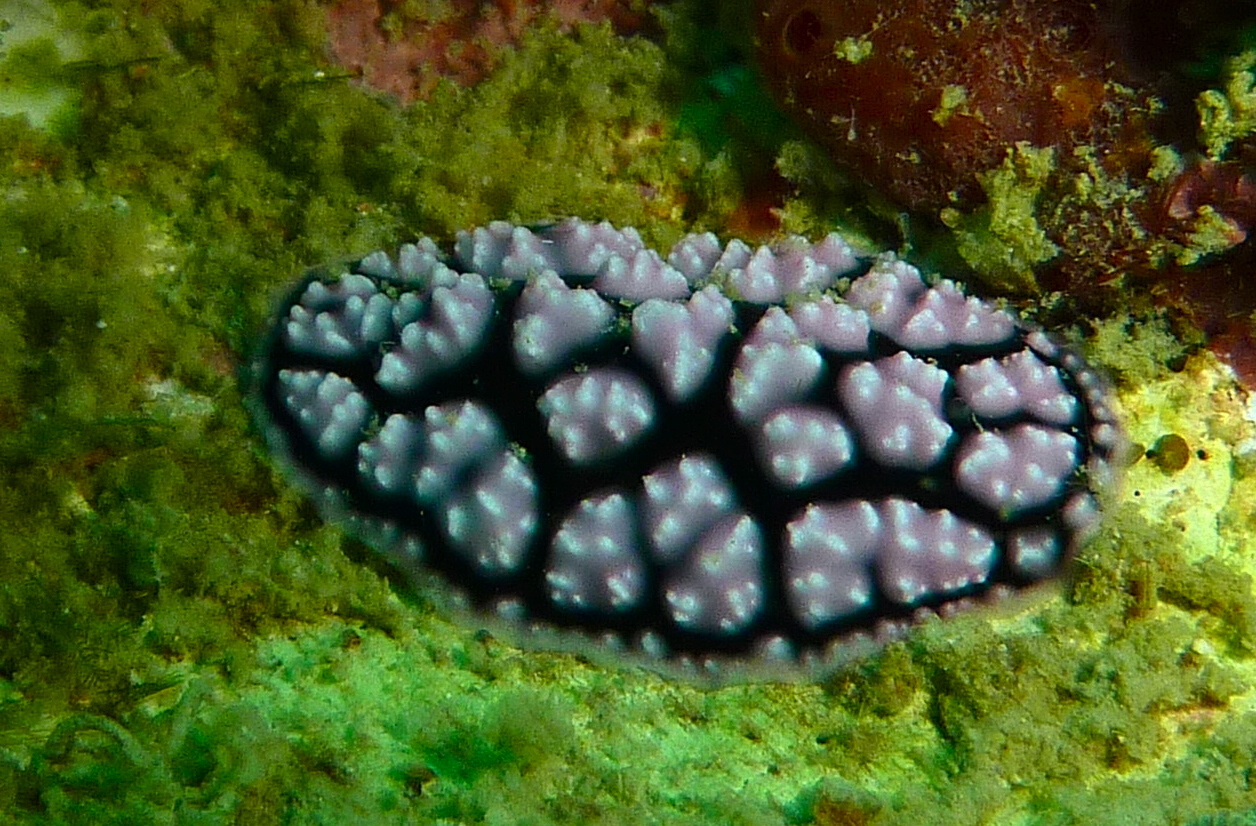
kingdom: Animalia
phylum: Mollusca
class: Gastropoda
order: Nudibranchia
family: Phyllidiidae
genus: Phyllidiella
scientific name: Phyllidiella pustulosa
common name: Pustular phyllidia
